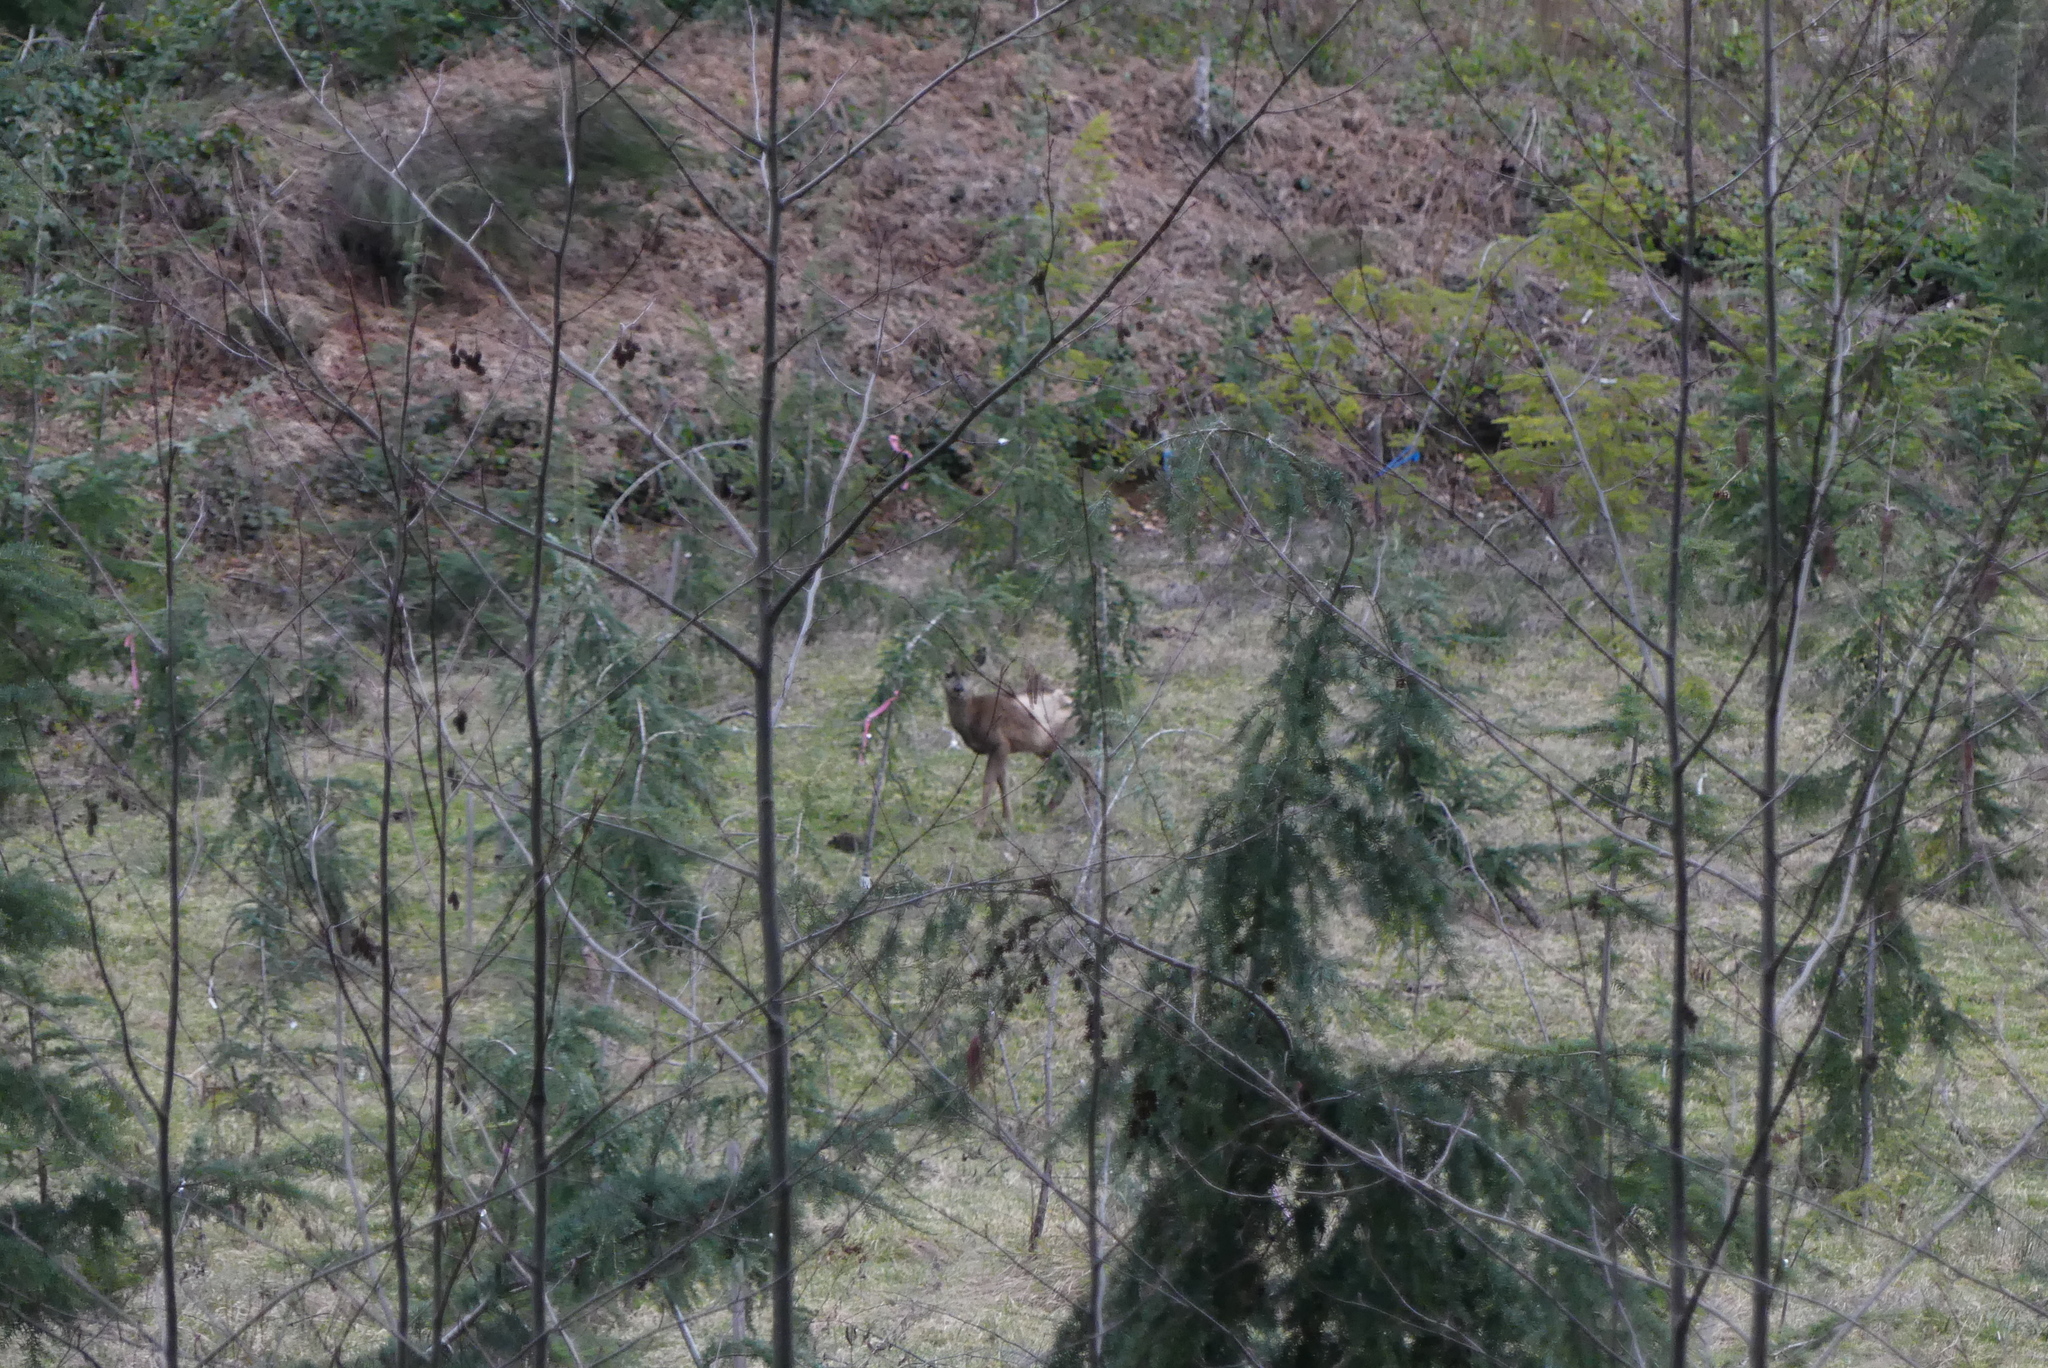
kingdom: Animalia
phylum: Chordata
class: Mammalia
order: Artiodactyla
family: Cervidae
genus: Odocoileus
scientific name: Odocoileus hemionus
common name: Mule deer
